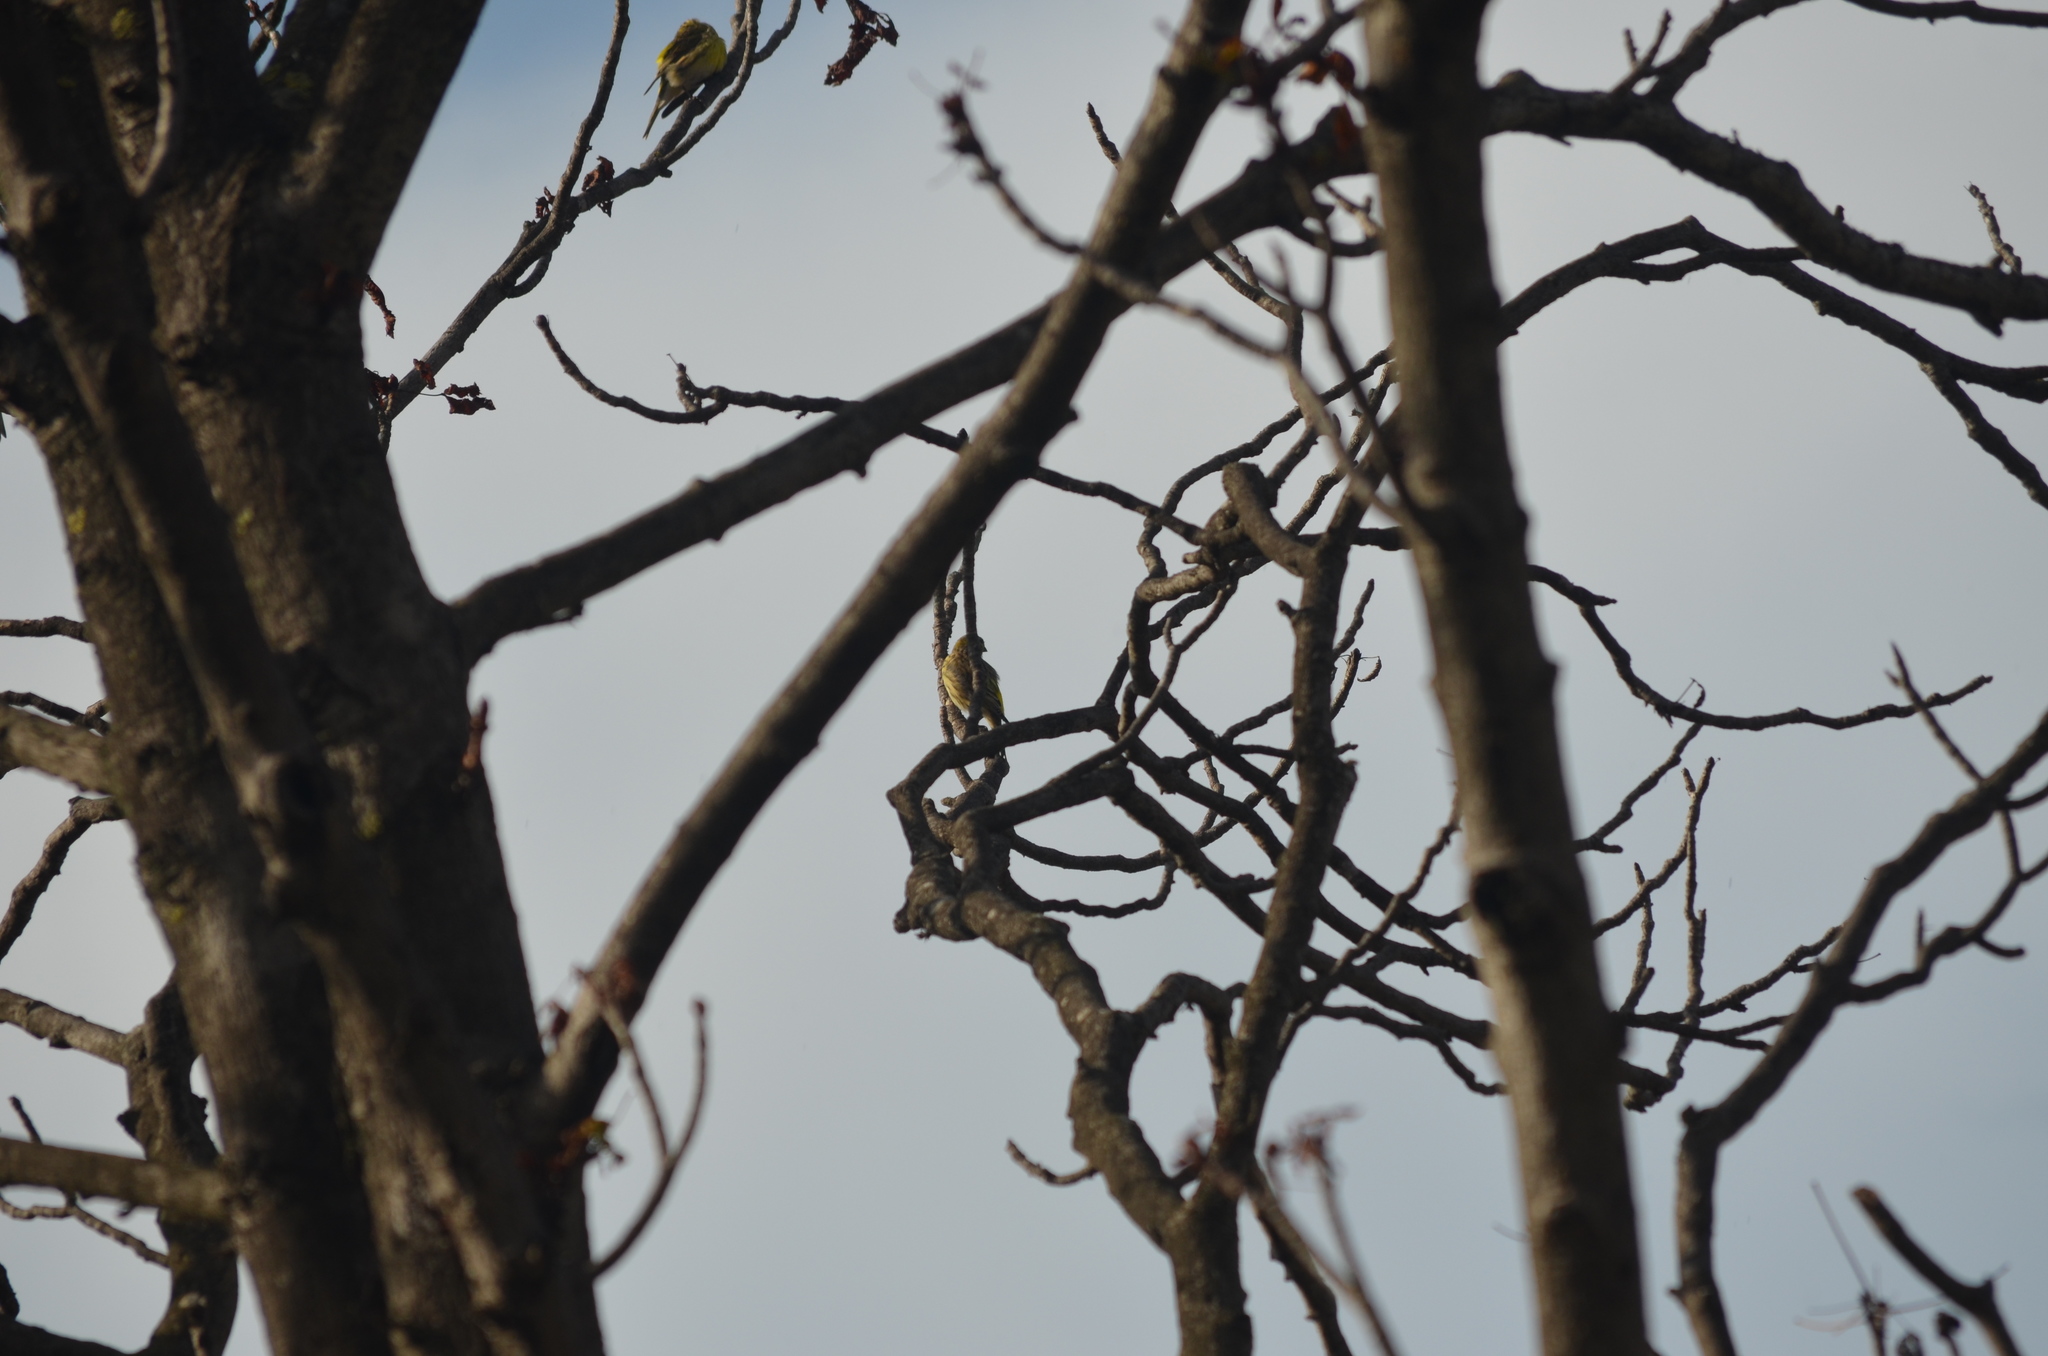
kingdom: Animalia
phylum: Chordata
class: Aves
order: Passeriformes
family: Fringillidae
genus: Serinus
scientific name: Serinus serinus
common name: European serin
